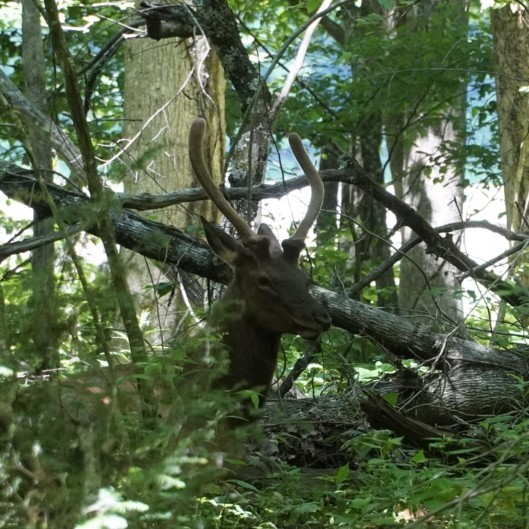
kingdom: Animalia
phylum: Chordata
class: Mammalia
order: Artiodactyla
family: Cervidae
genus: Cervus
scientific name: Cervus elaphus
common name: Red deer
